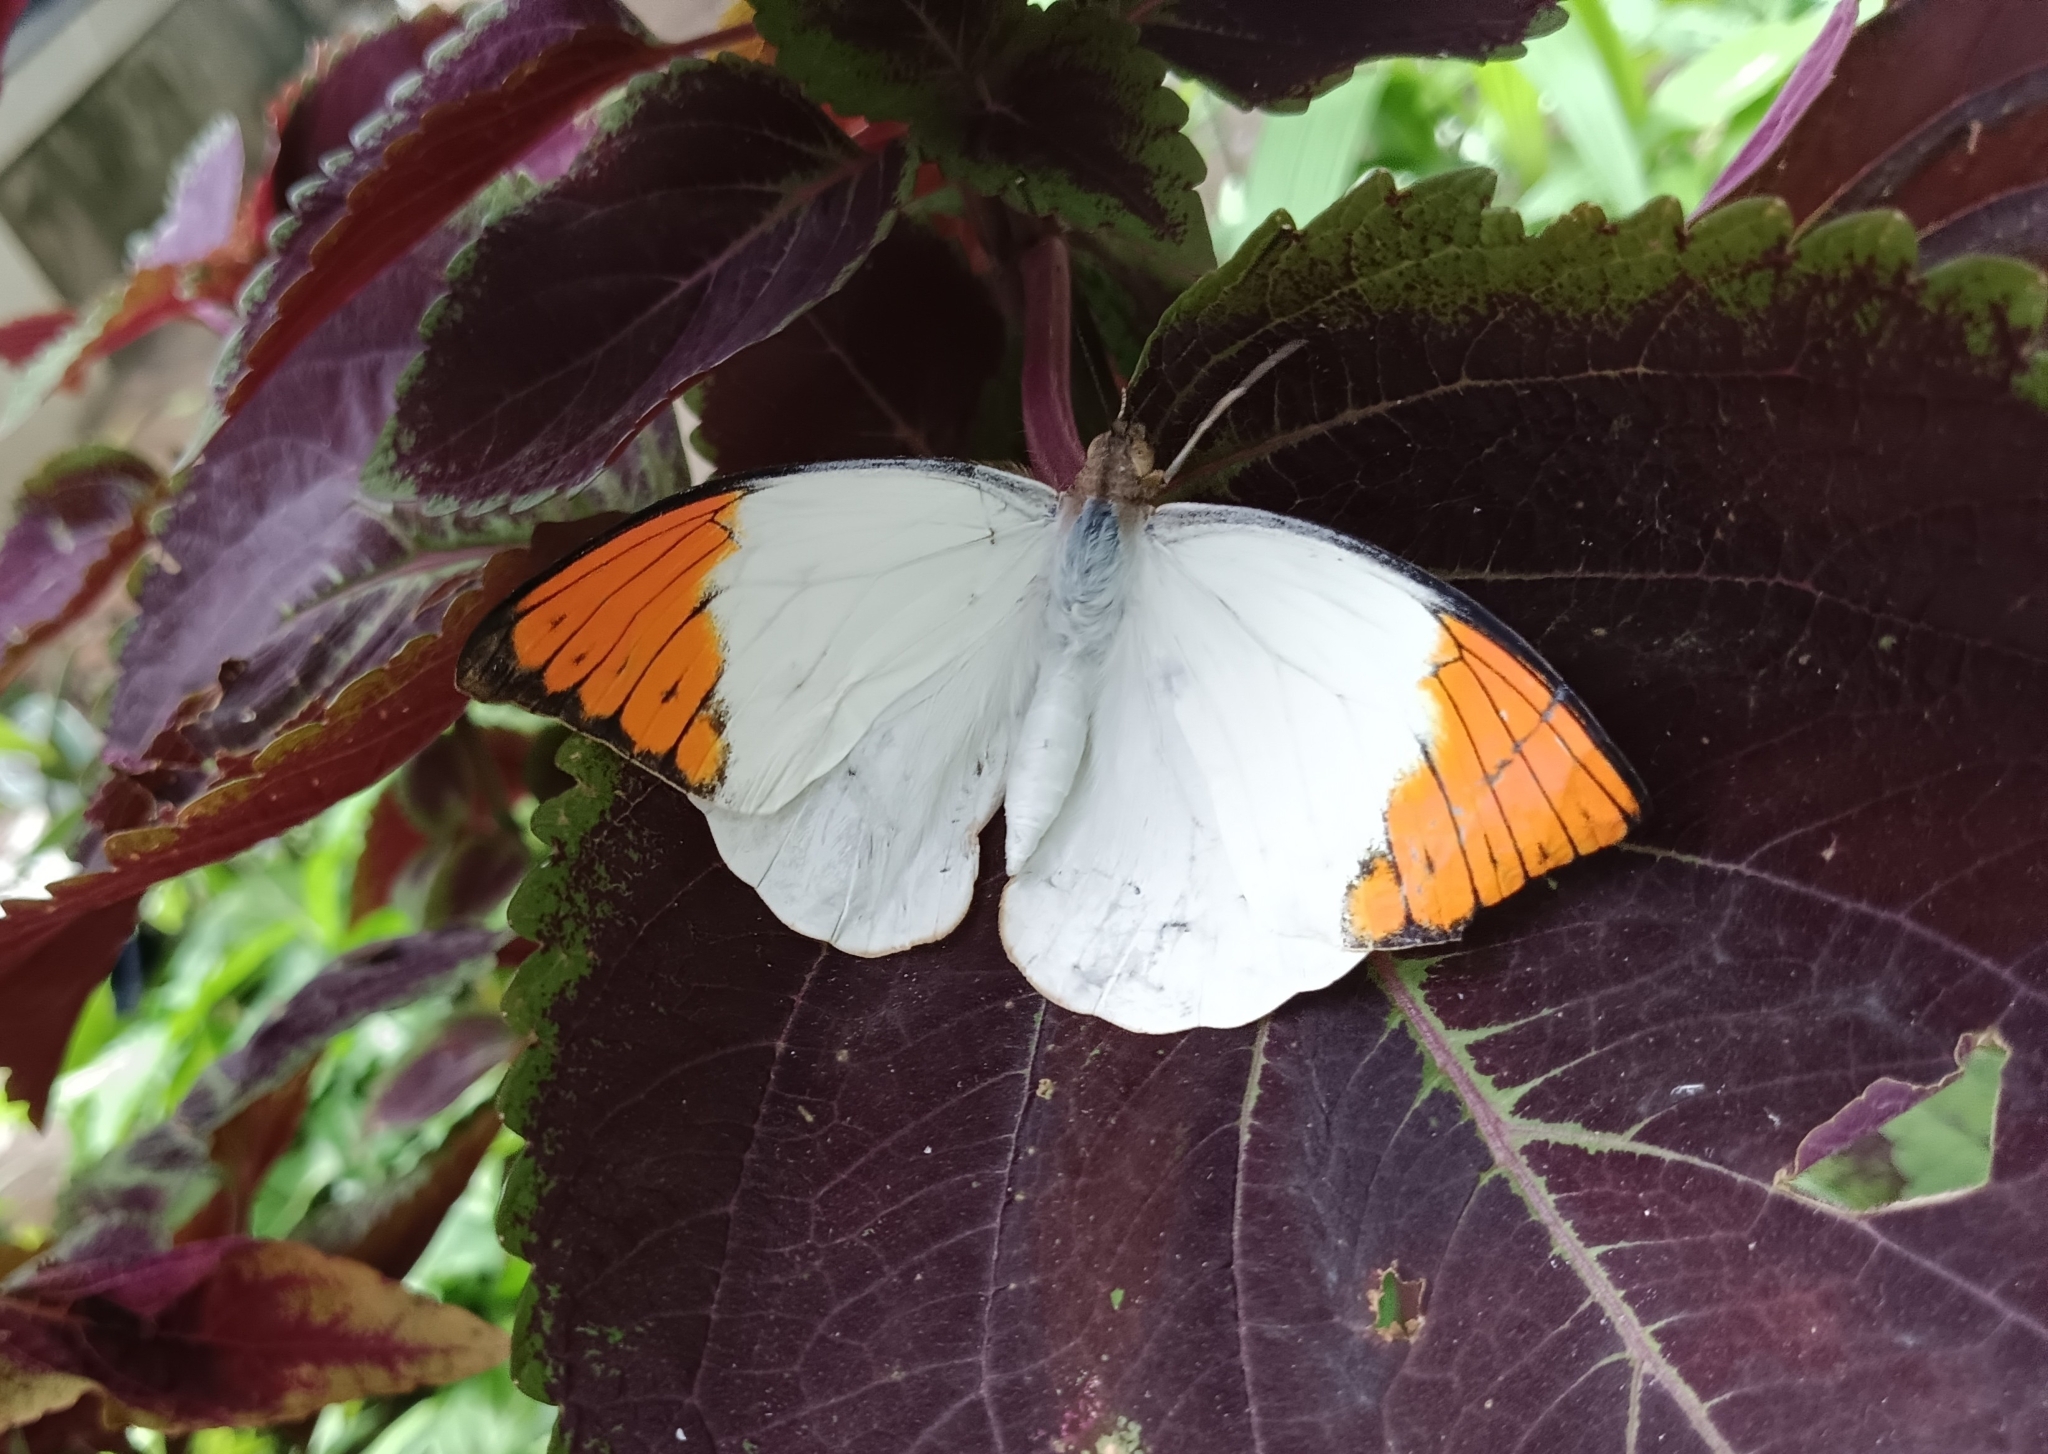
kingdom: Animalia
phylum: Arthropoda
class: Insecta
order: Lepidoptera
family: Pieridae
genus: Hebomoia
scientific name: Hebomoia glaucippe
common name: Great orange tip
